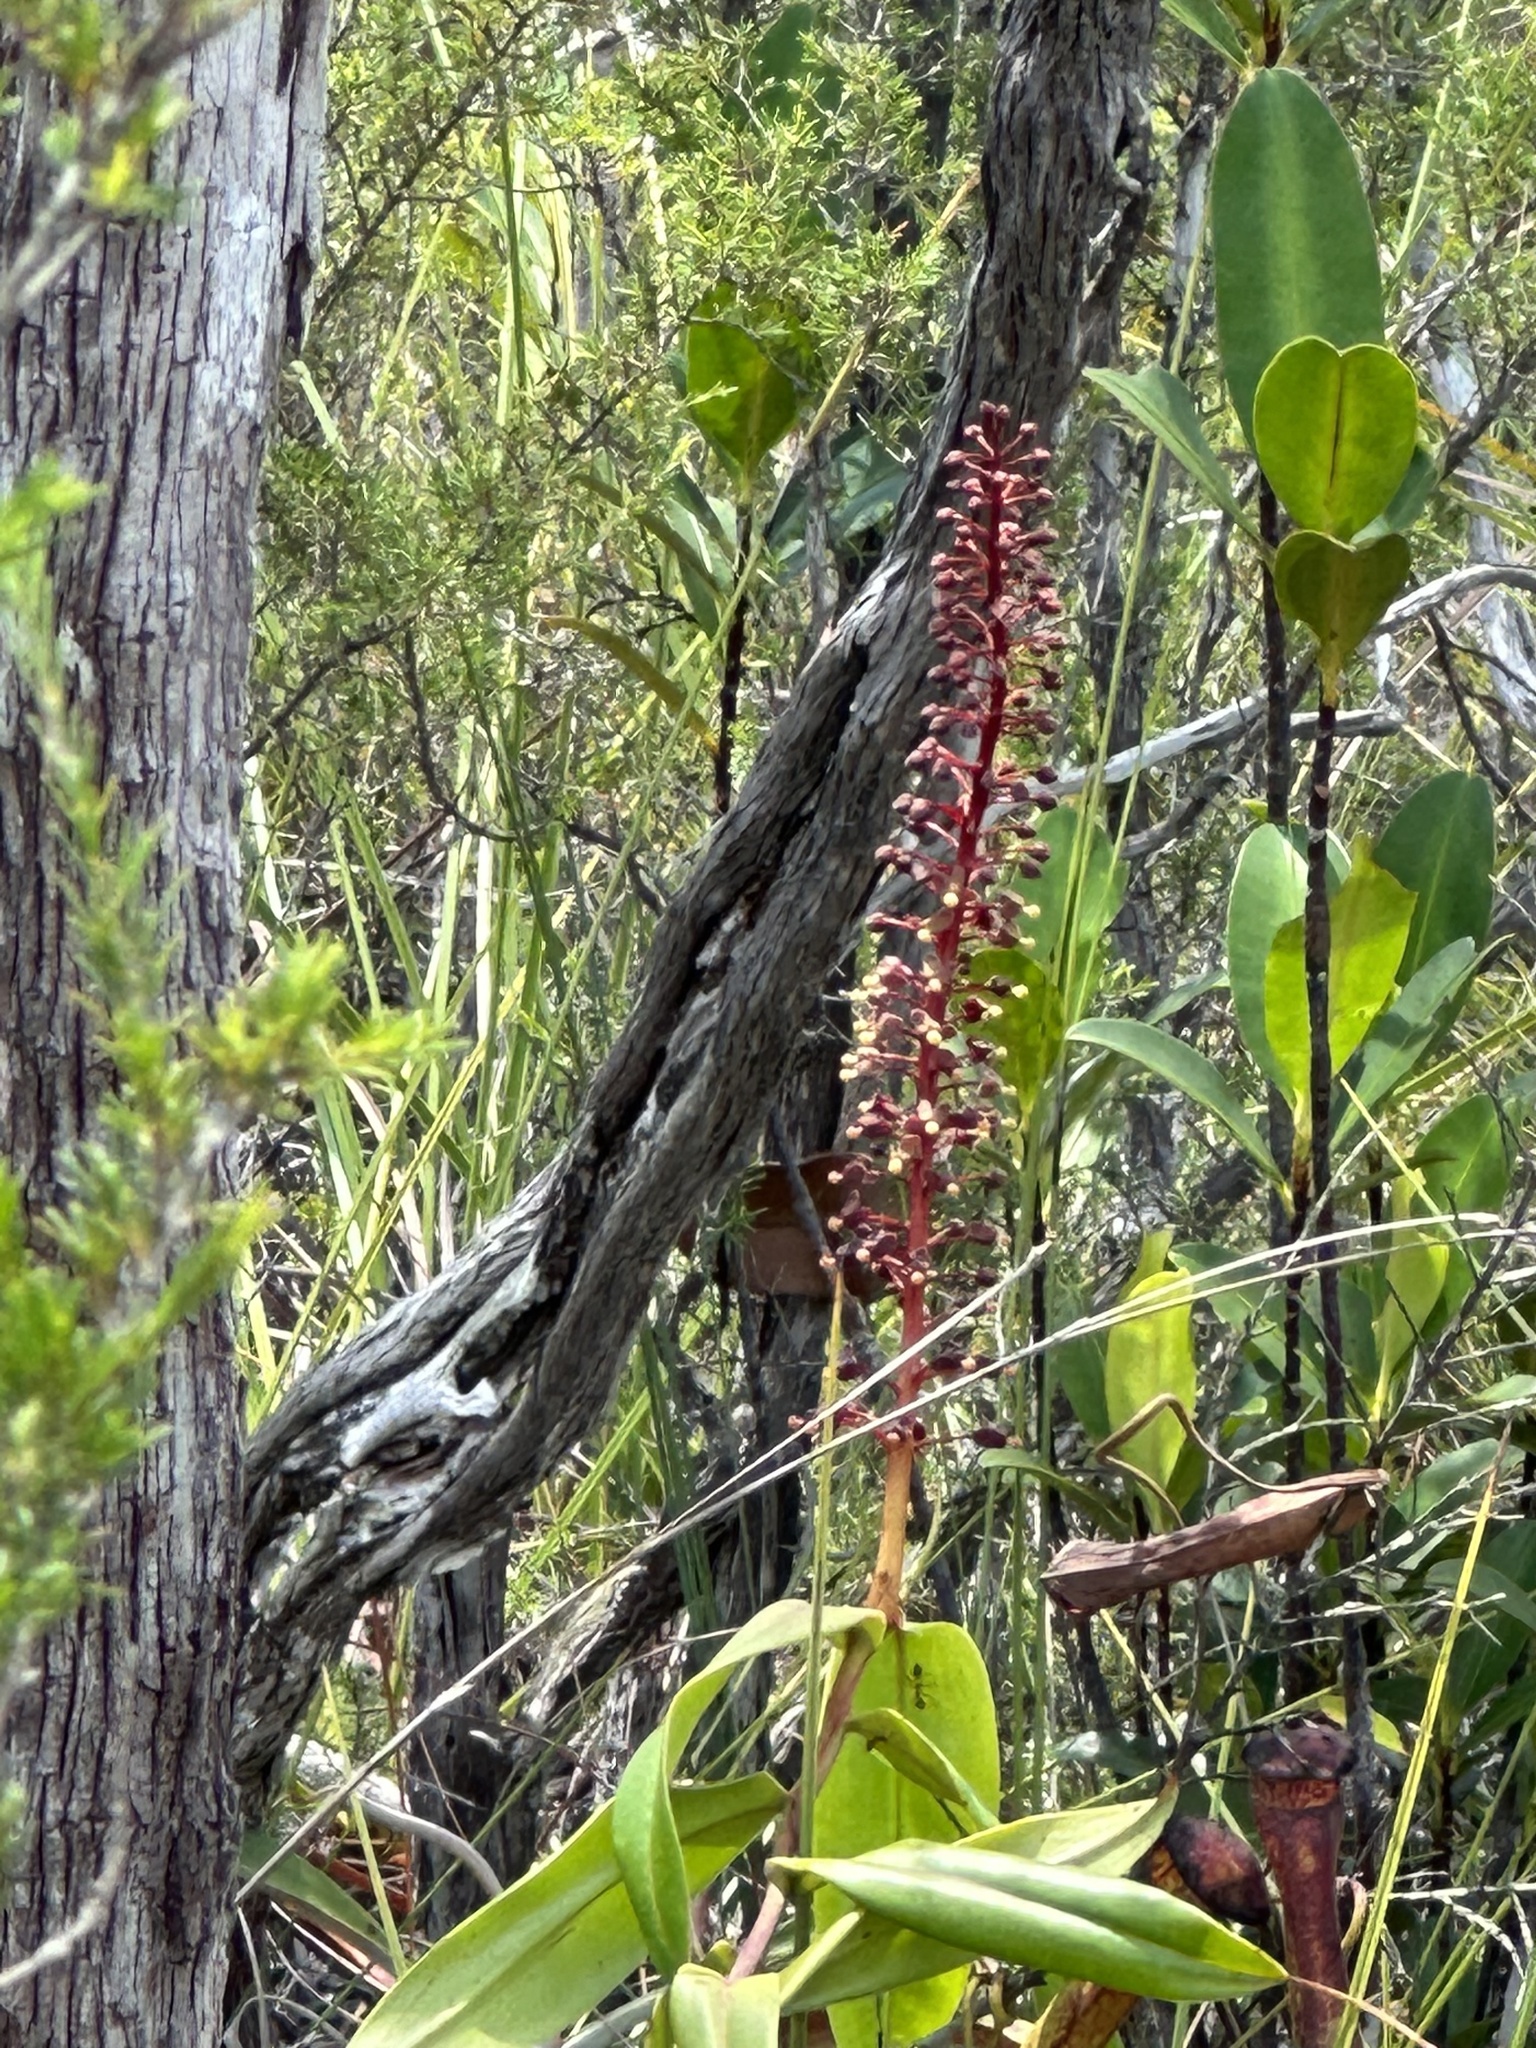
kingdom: Plantae
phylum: Tracheophyta
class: Magnoliopsida
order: Caryophyllales
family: Nepenthaceae
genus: Nepenthes
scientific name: Nepenthes gracilis
